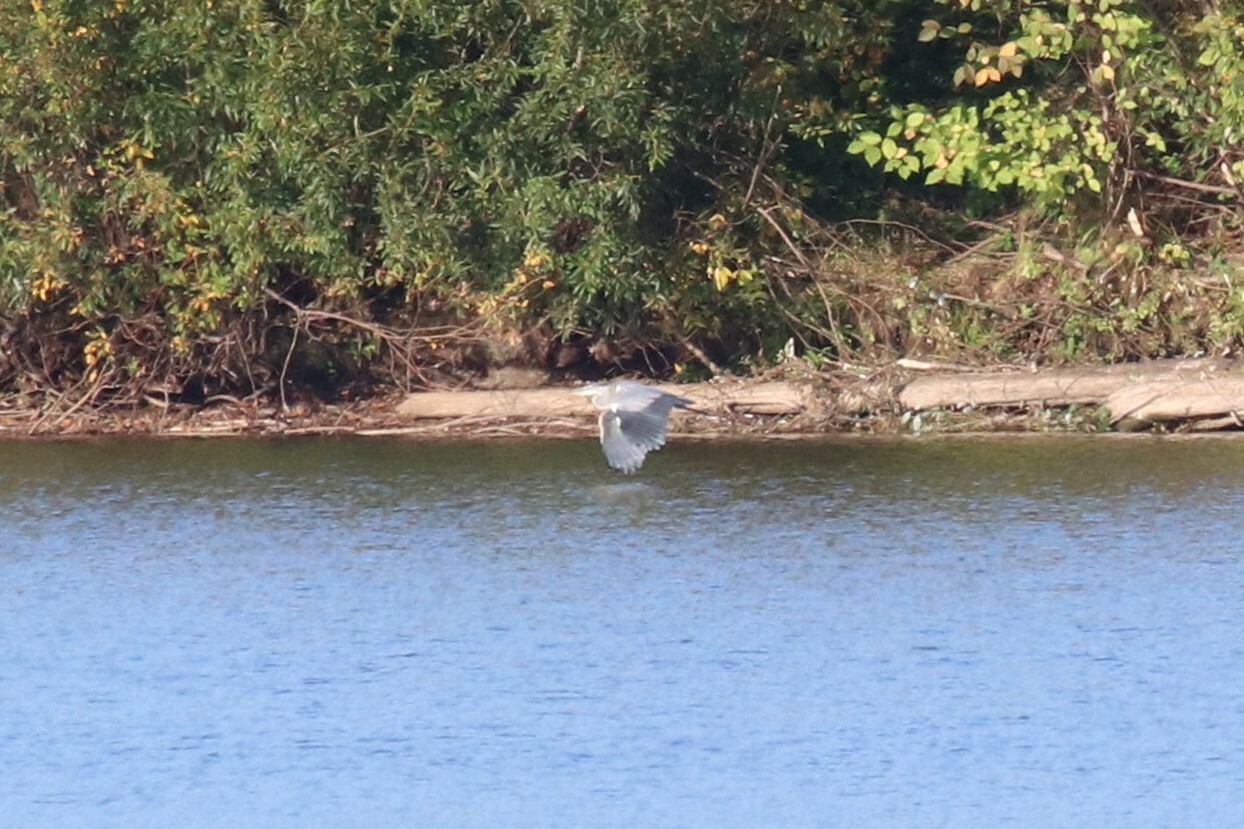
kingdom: Animalia
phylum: Chordata
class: Aves
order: Pelecaniformes
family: Ardeidae
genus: Ardea
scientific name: Ardea cinerea
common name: Grey heron
